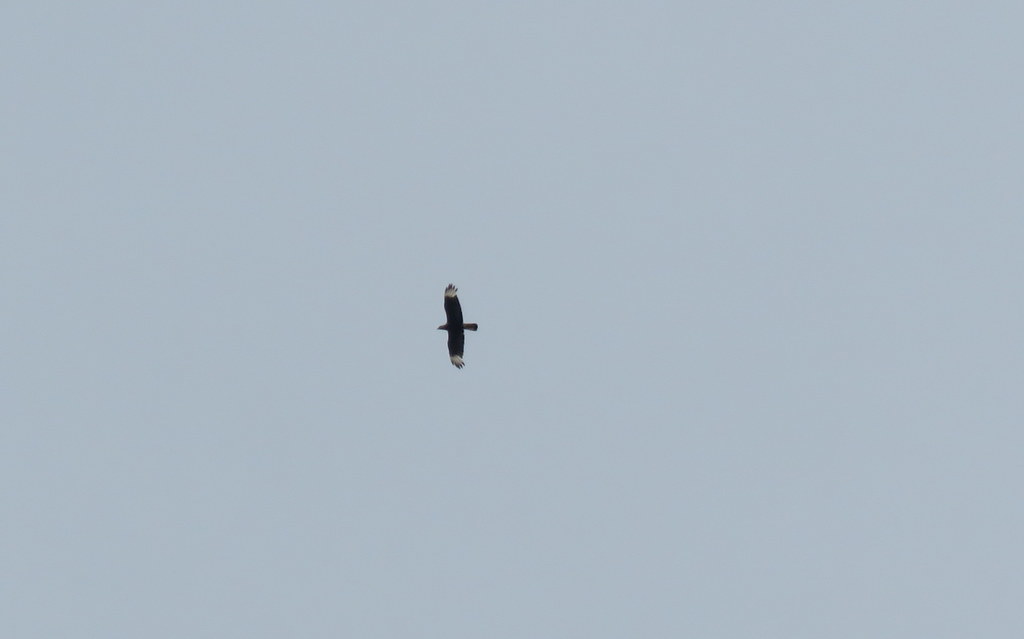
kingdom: Animalia
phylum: Chordata
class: Aves
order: Falconiformes
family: Falconidae
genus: Caracara
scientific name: Caracara plancus
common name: Southern caracara
